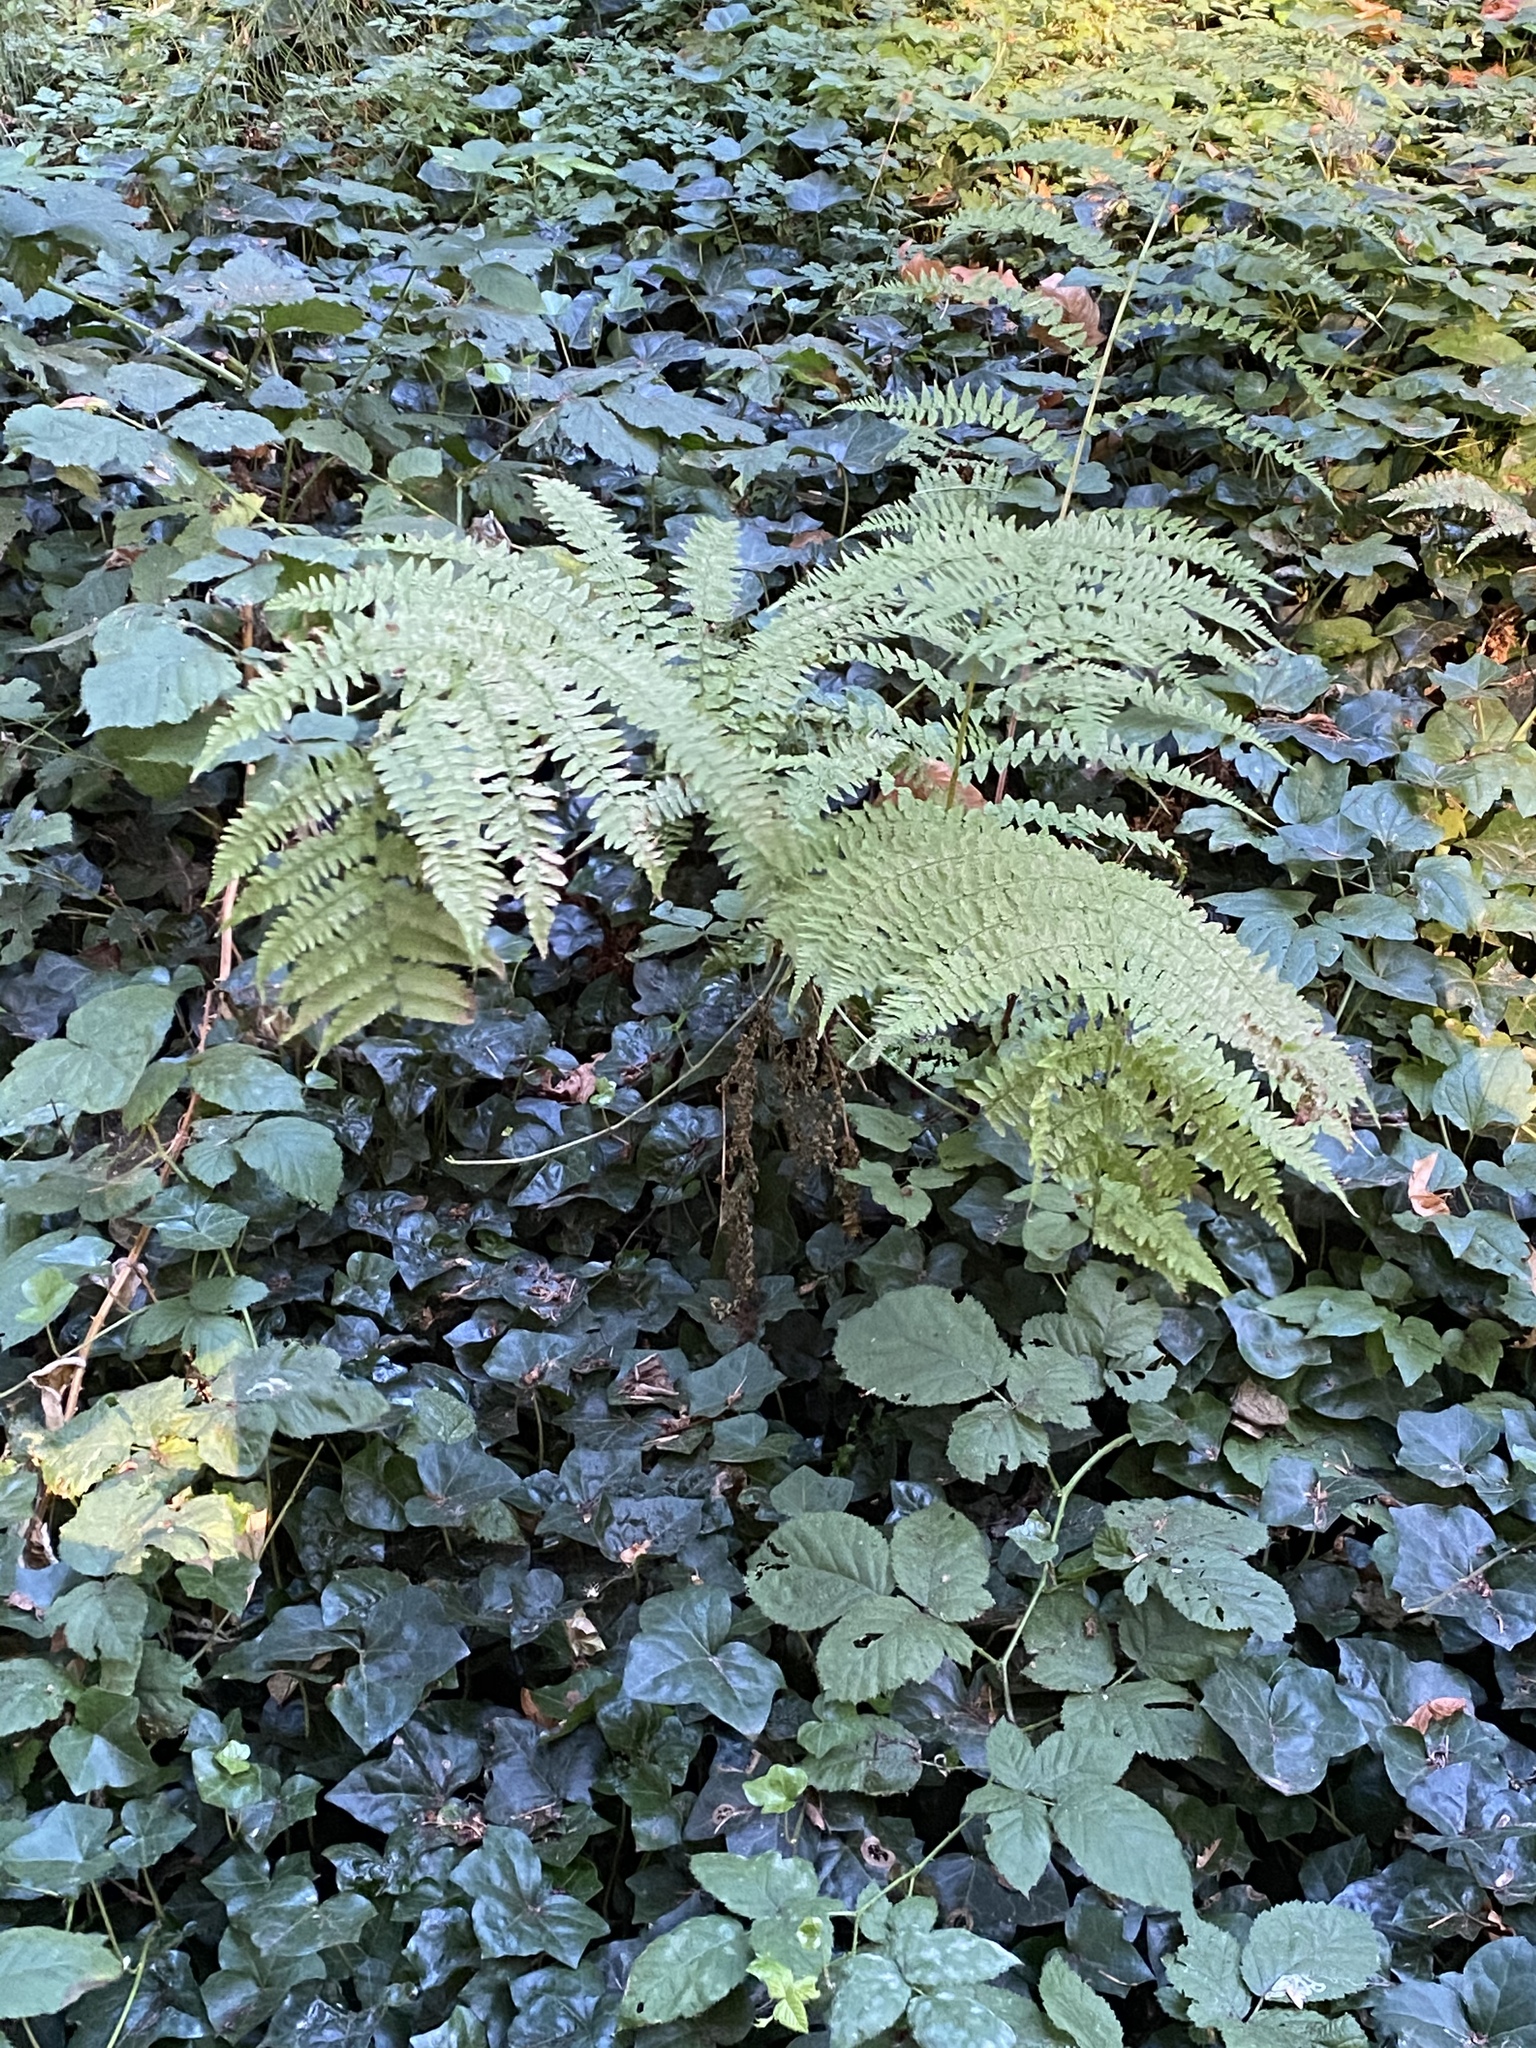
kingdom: Plantae
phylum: Tracheophyta
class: Polypodiopsida
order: Polypodiales
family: Dennstaedtiaceae
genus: Pteridium
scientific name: Pteridium aquilinum
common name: Bracken
